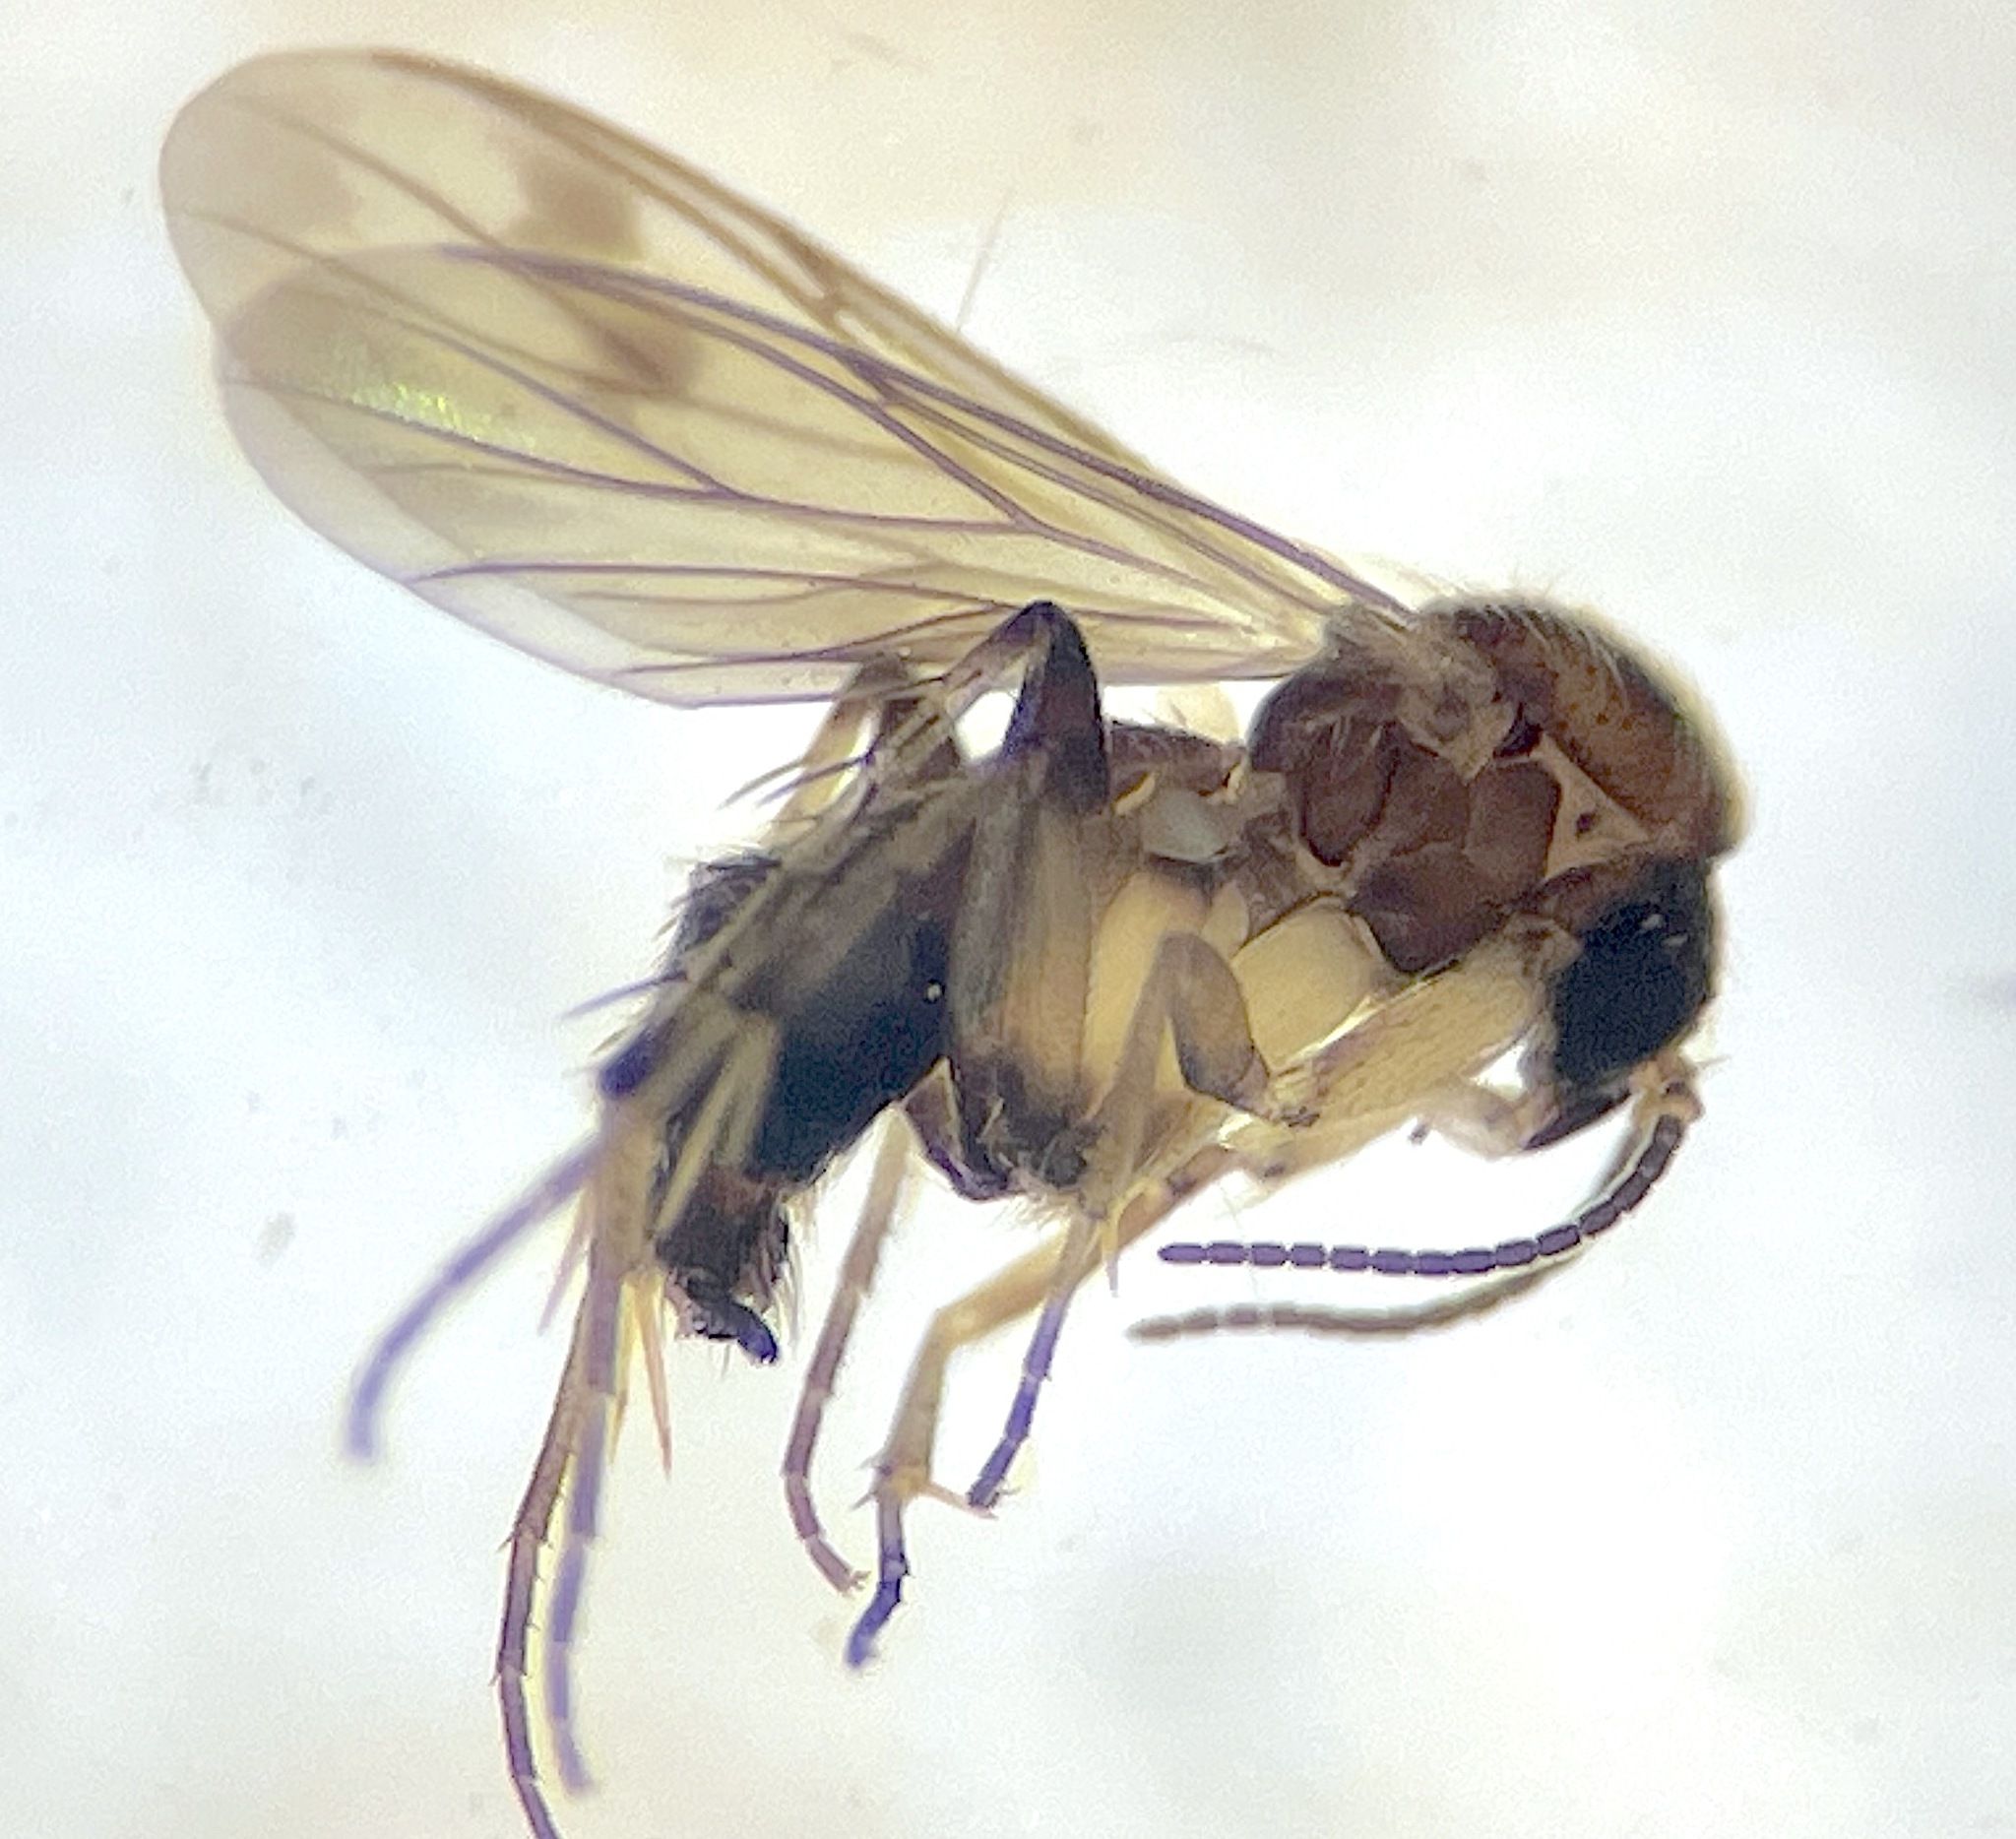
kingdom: Animalia
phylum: Arthropoda
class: Insecta
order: Diptera
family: Mycetophilidae
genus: Anomalomyia
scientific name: Anomalomyia minor
